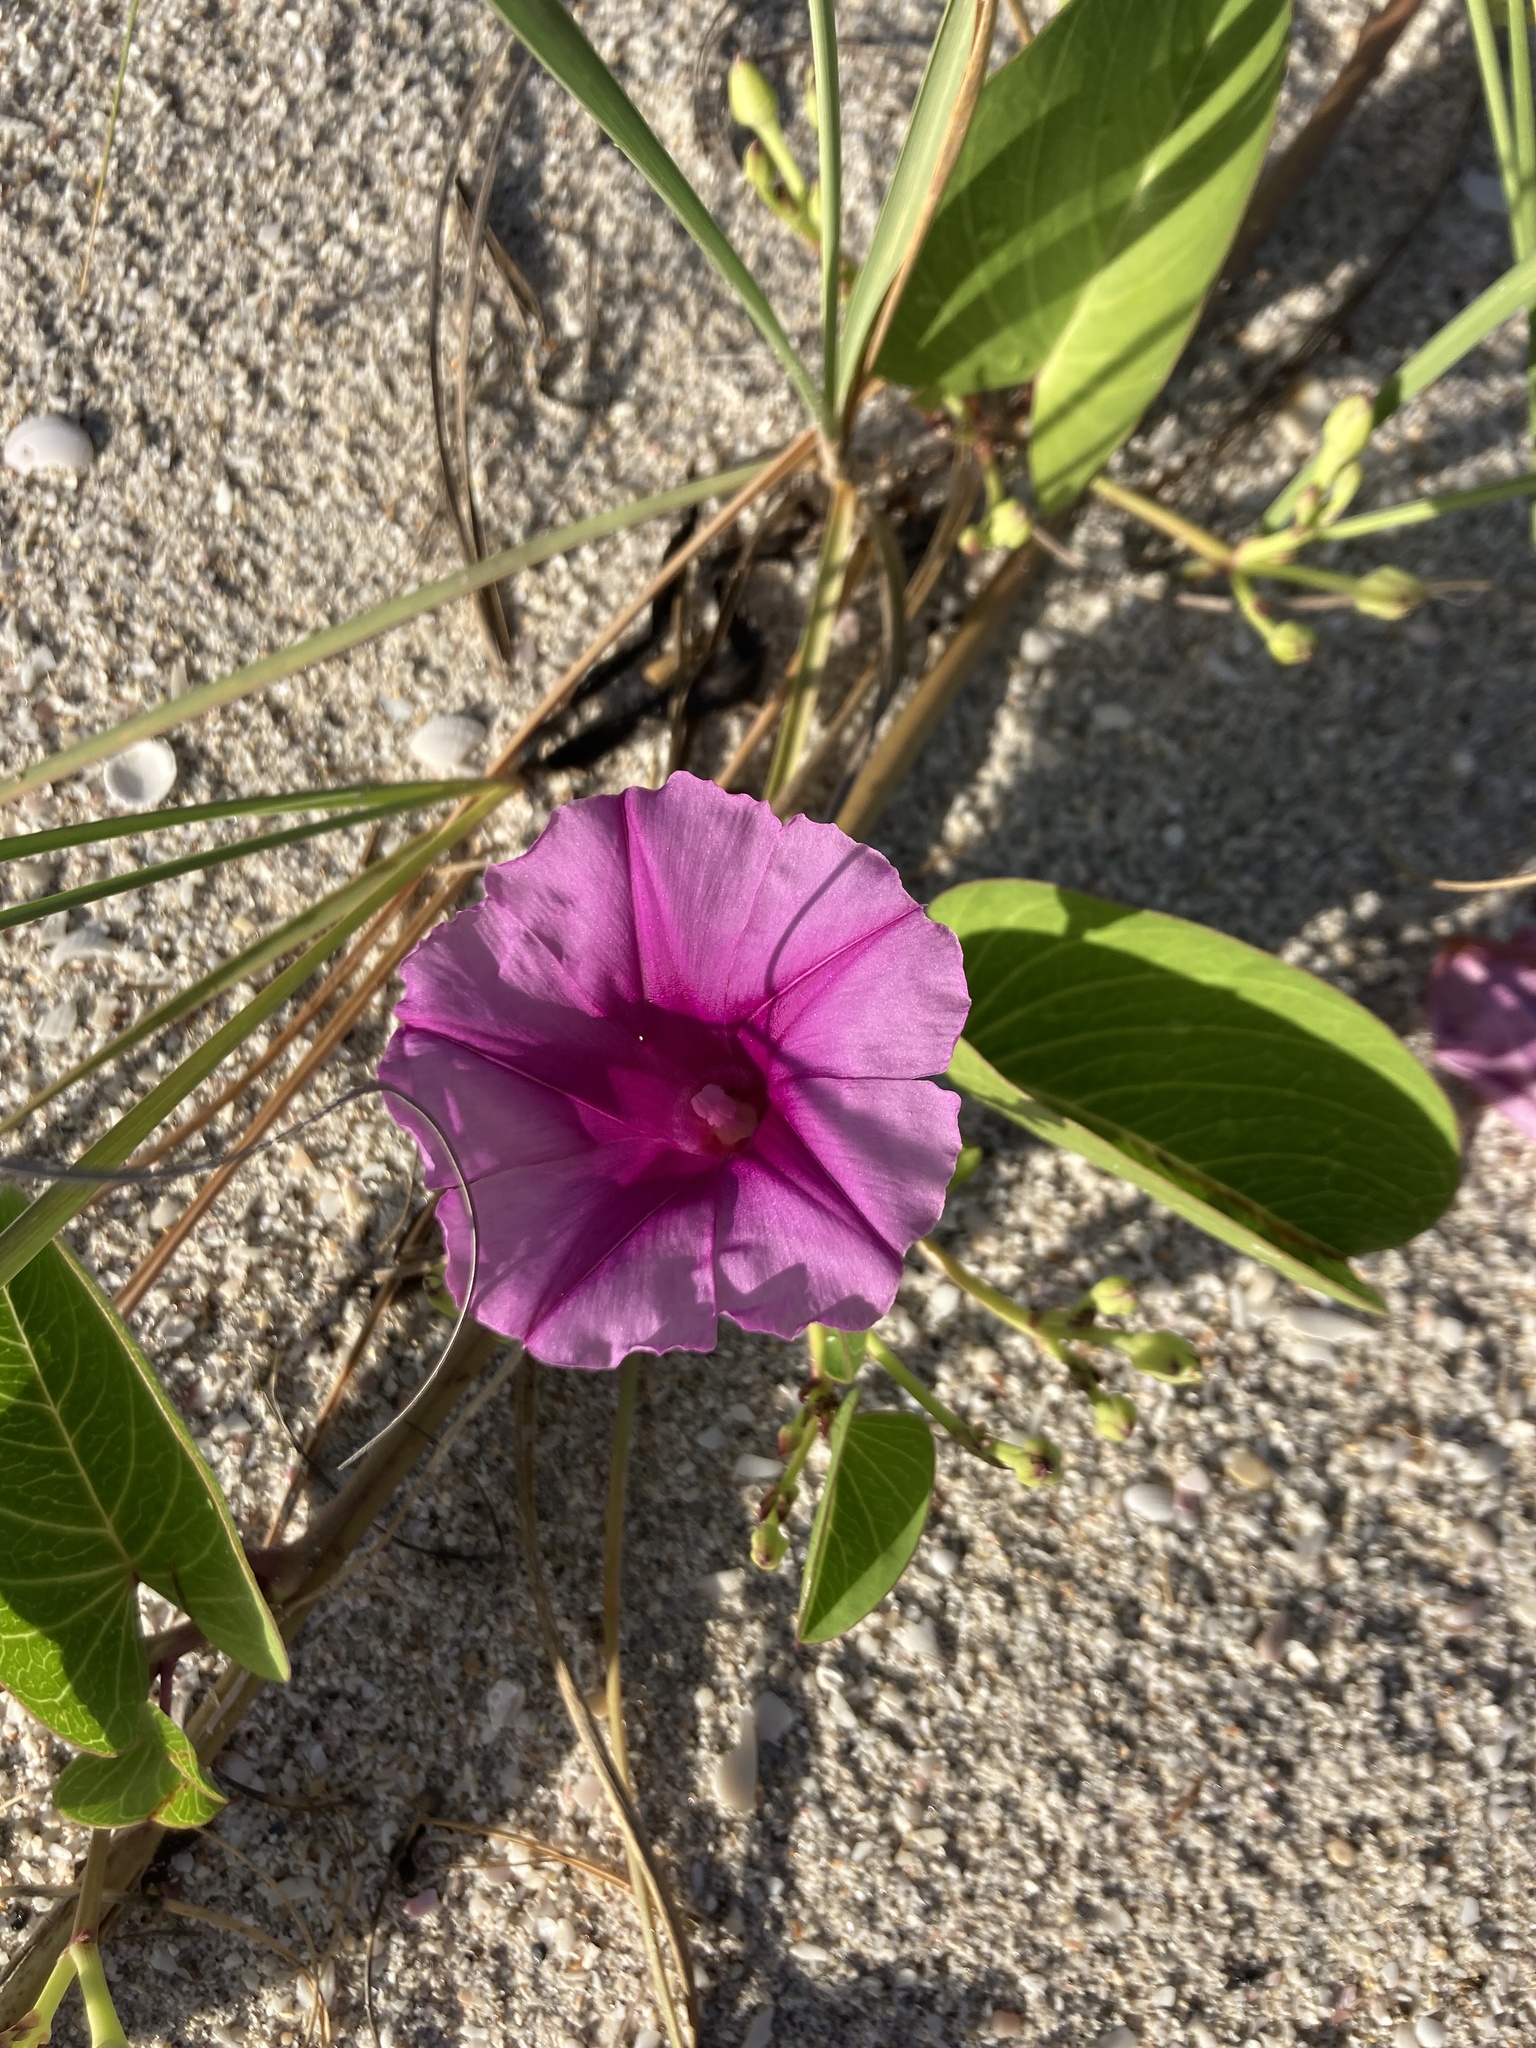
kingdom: Plantae
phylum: Tracheophyta
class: Magnoliopsida
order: Solanales
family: Convolvulaceae
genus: Ipomoea
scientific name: Ipomoea pes-caprae
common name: Beach morning glory
